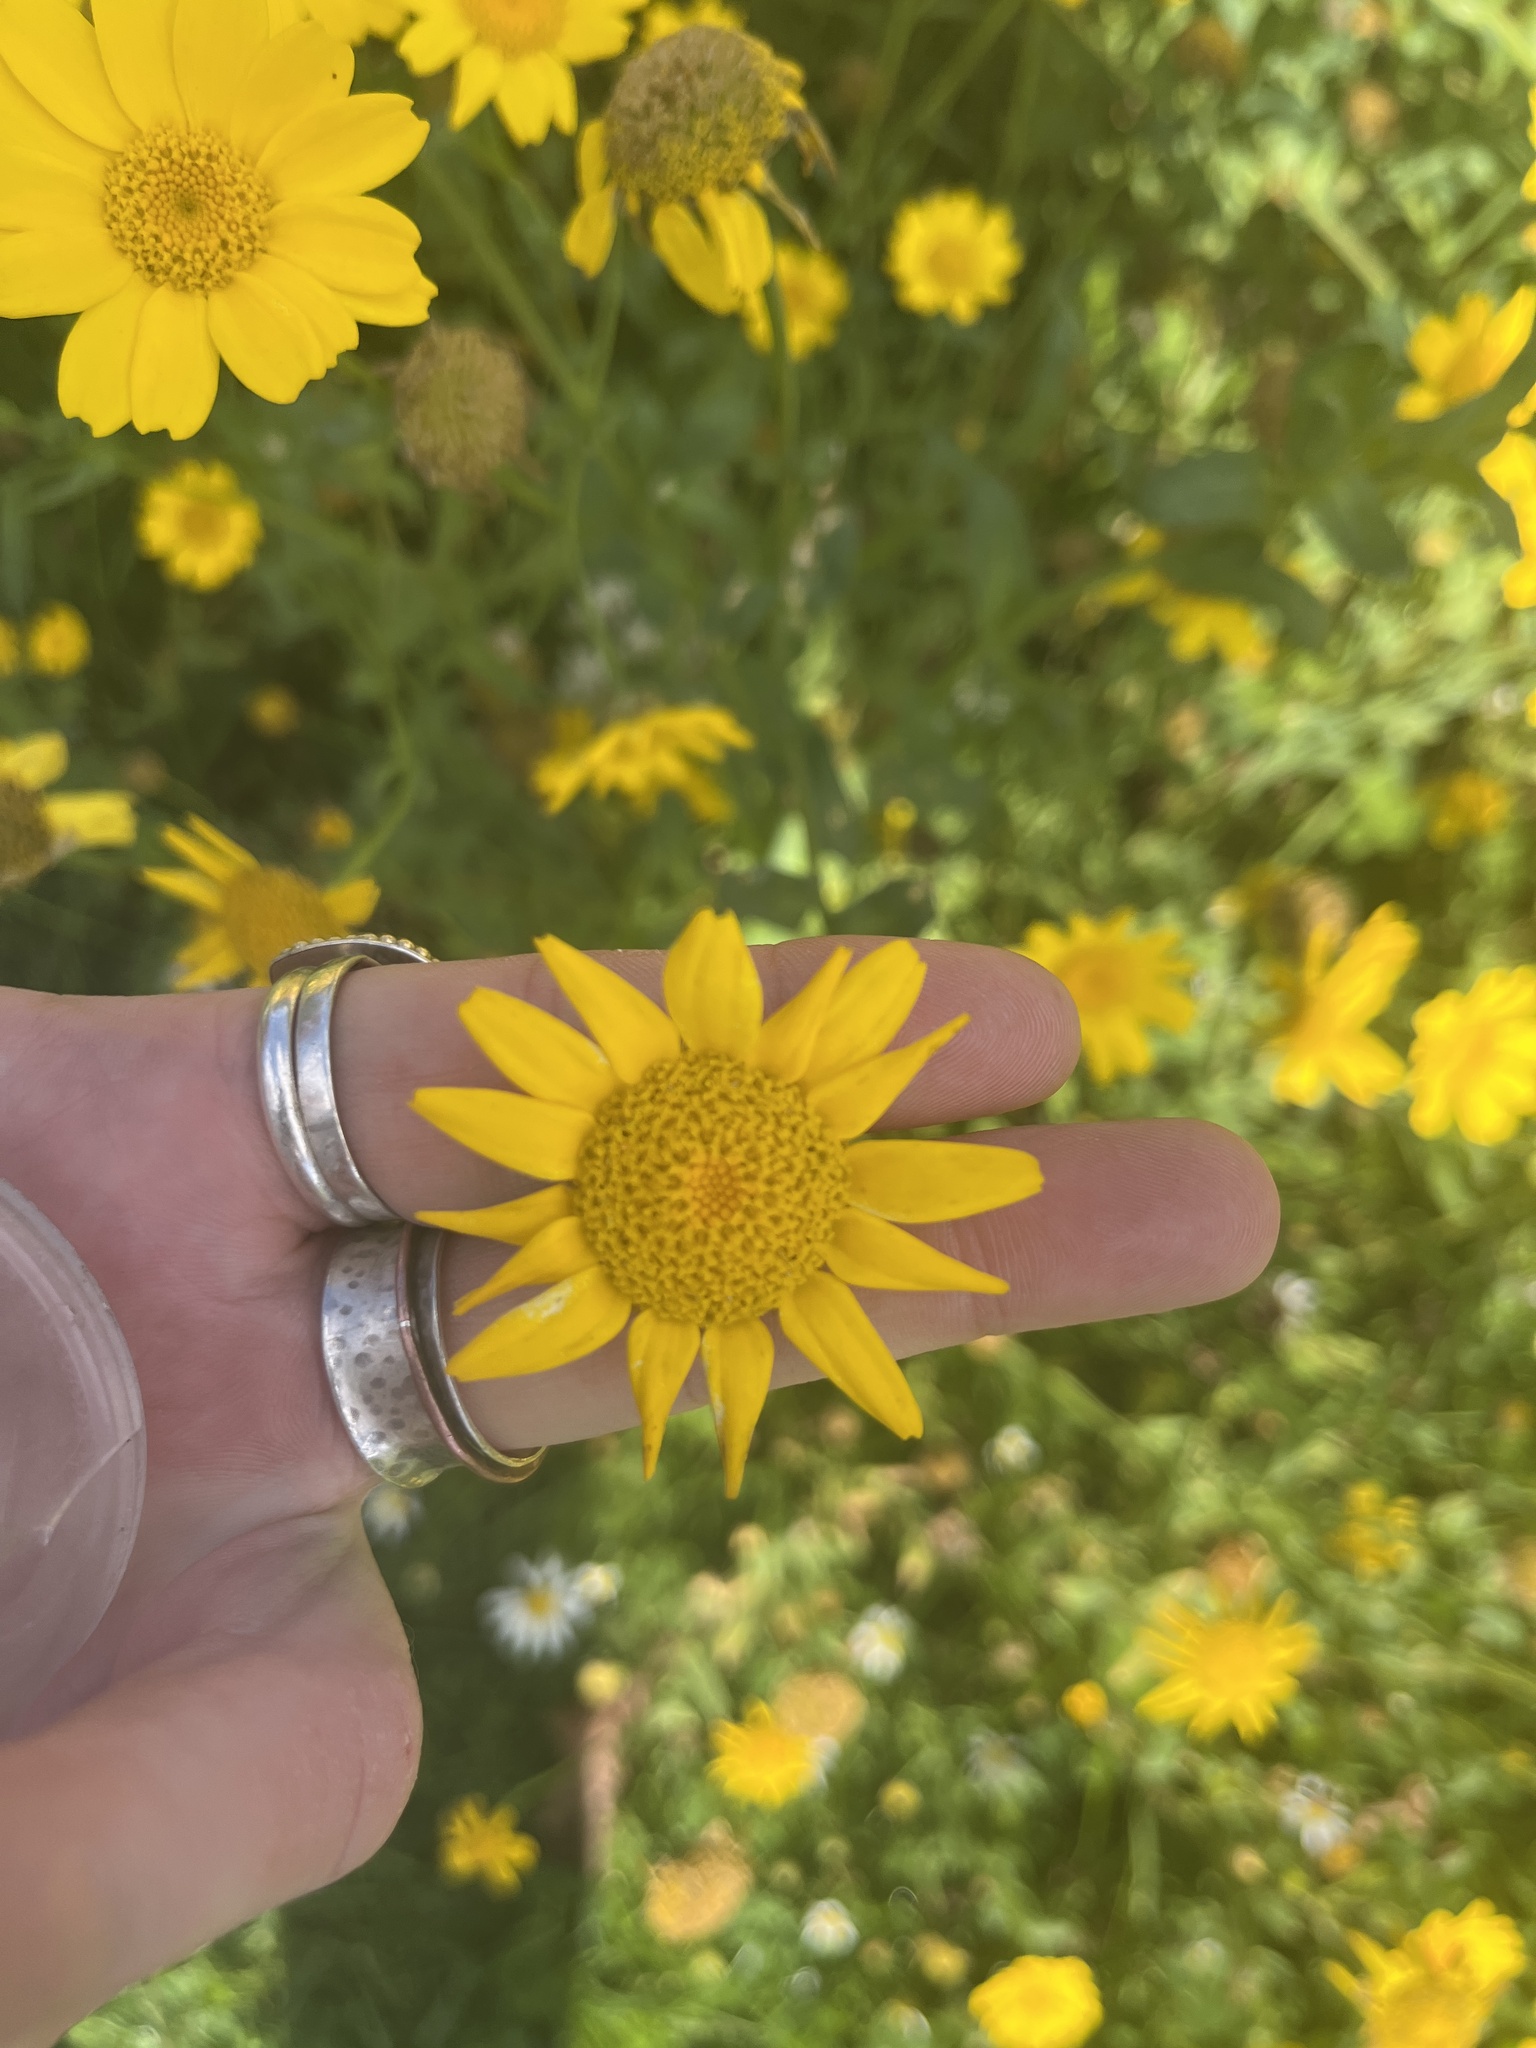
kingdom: Plantae
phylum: Tracheophyta
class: Magnoliopsida
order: Asterales
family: Asteraceae
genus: Glebionis
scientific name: Glebionis segetum
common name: Corndaisy
